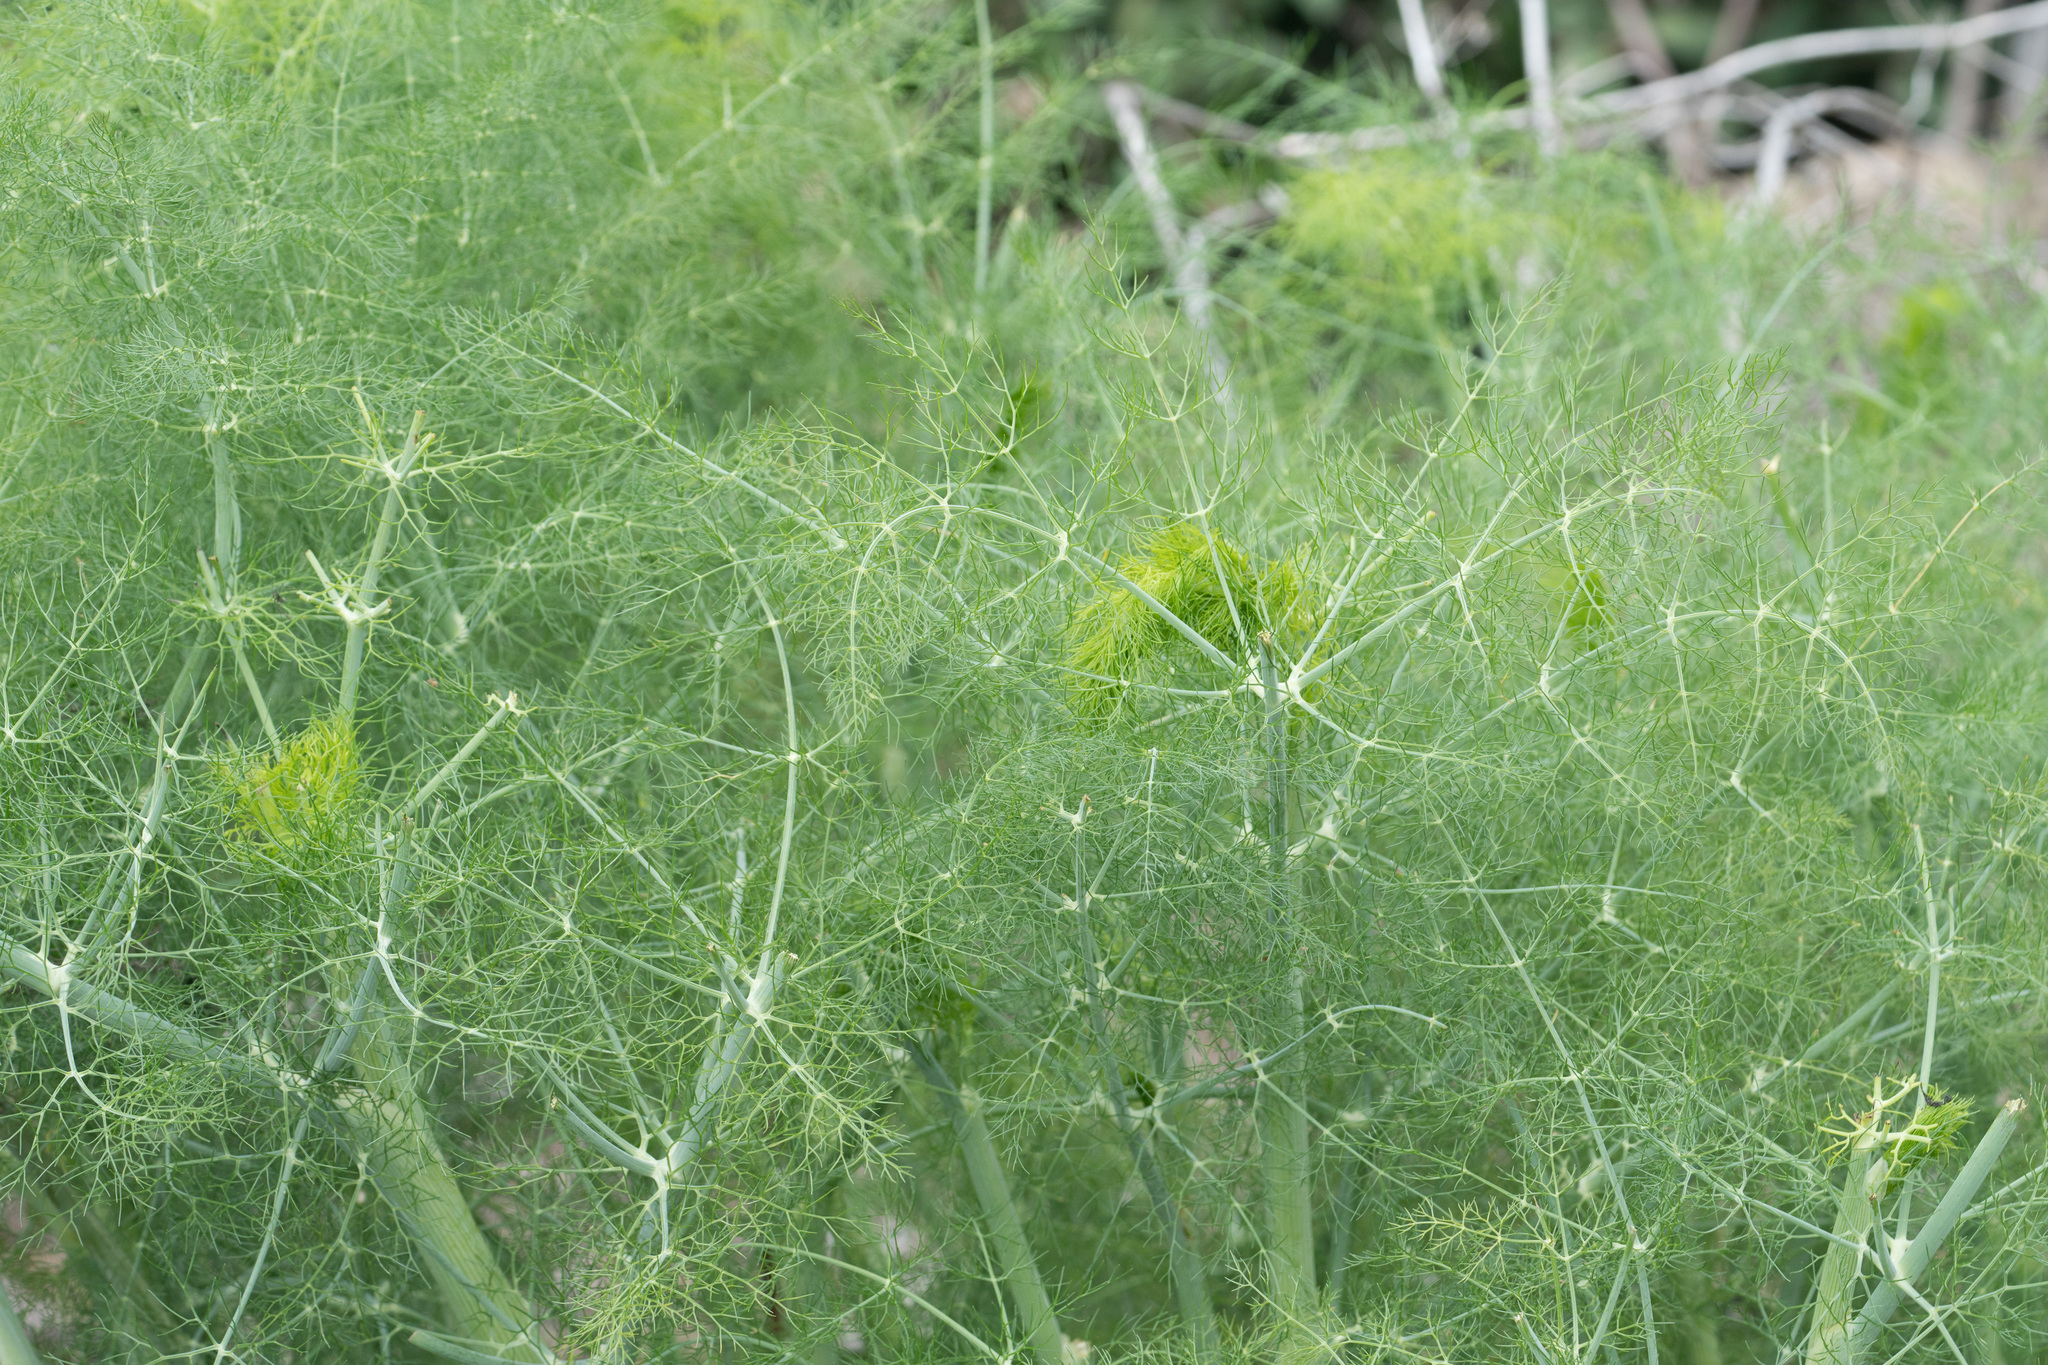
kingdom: Plantae
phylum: Tracheophyta
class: Magnoliopsida
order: Apiales
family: Apiaceae
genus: Foeniculum
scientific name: Foeniculum vulgare
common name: Fennel
